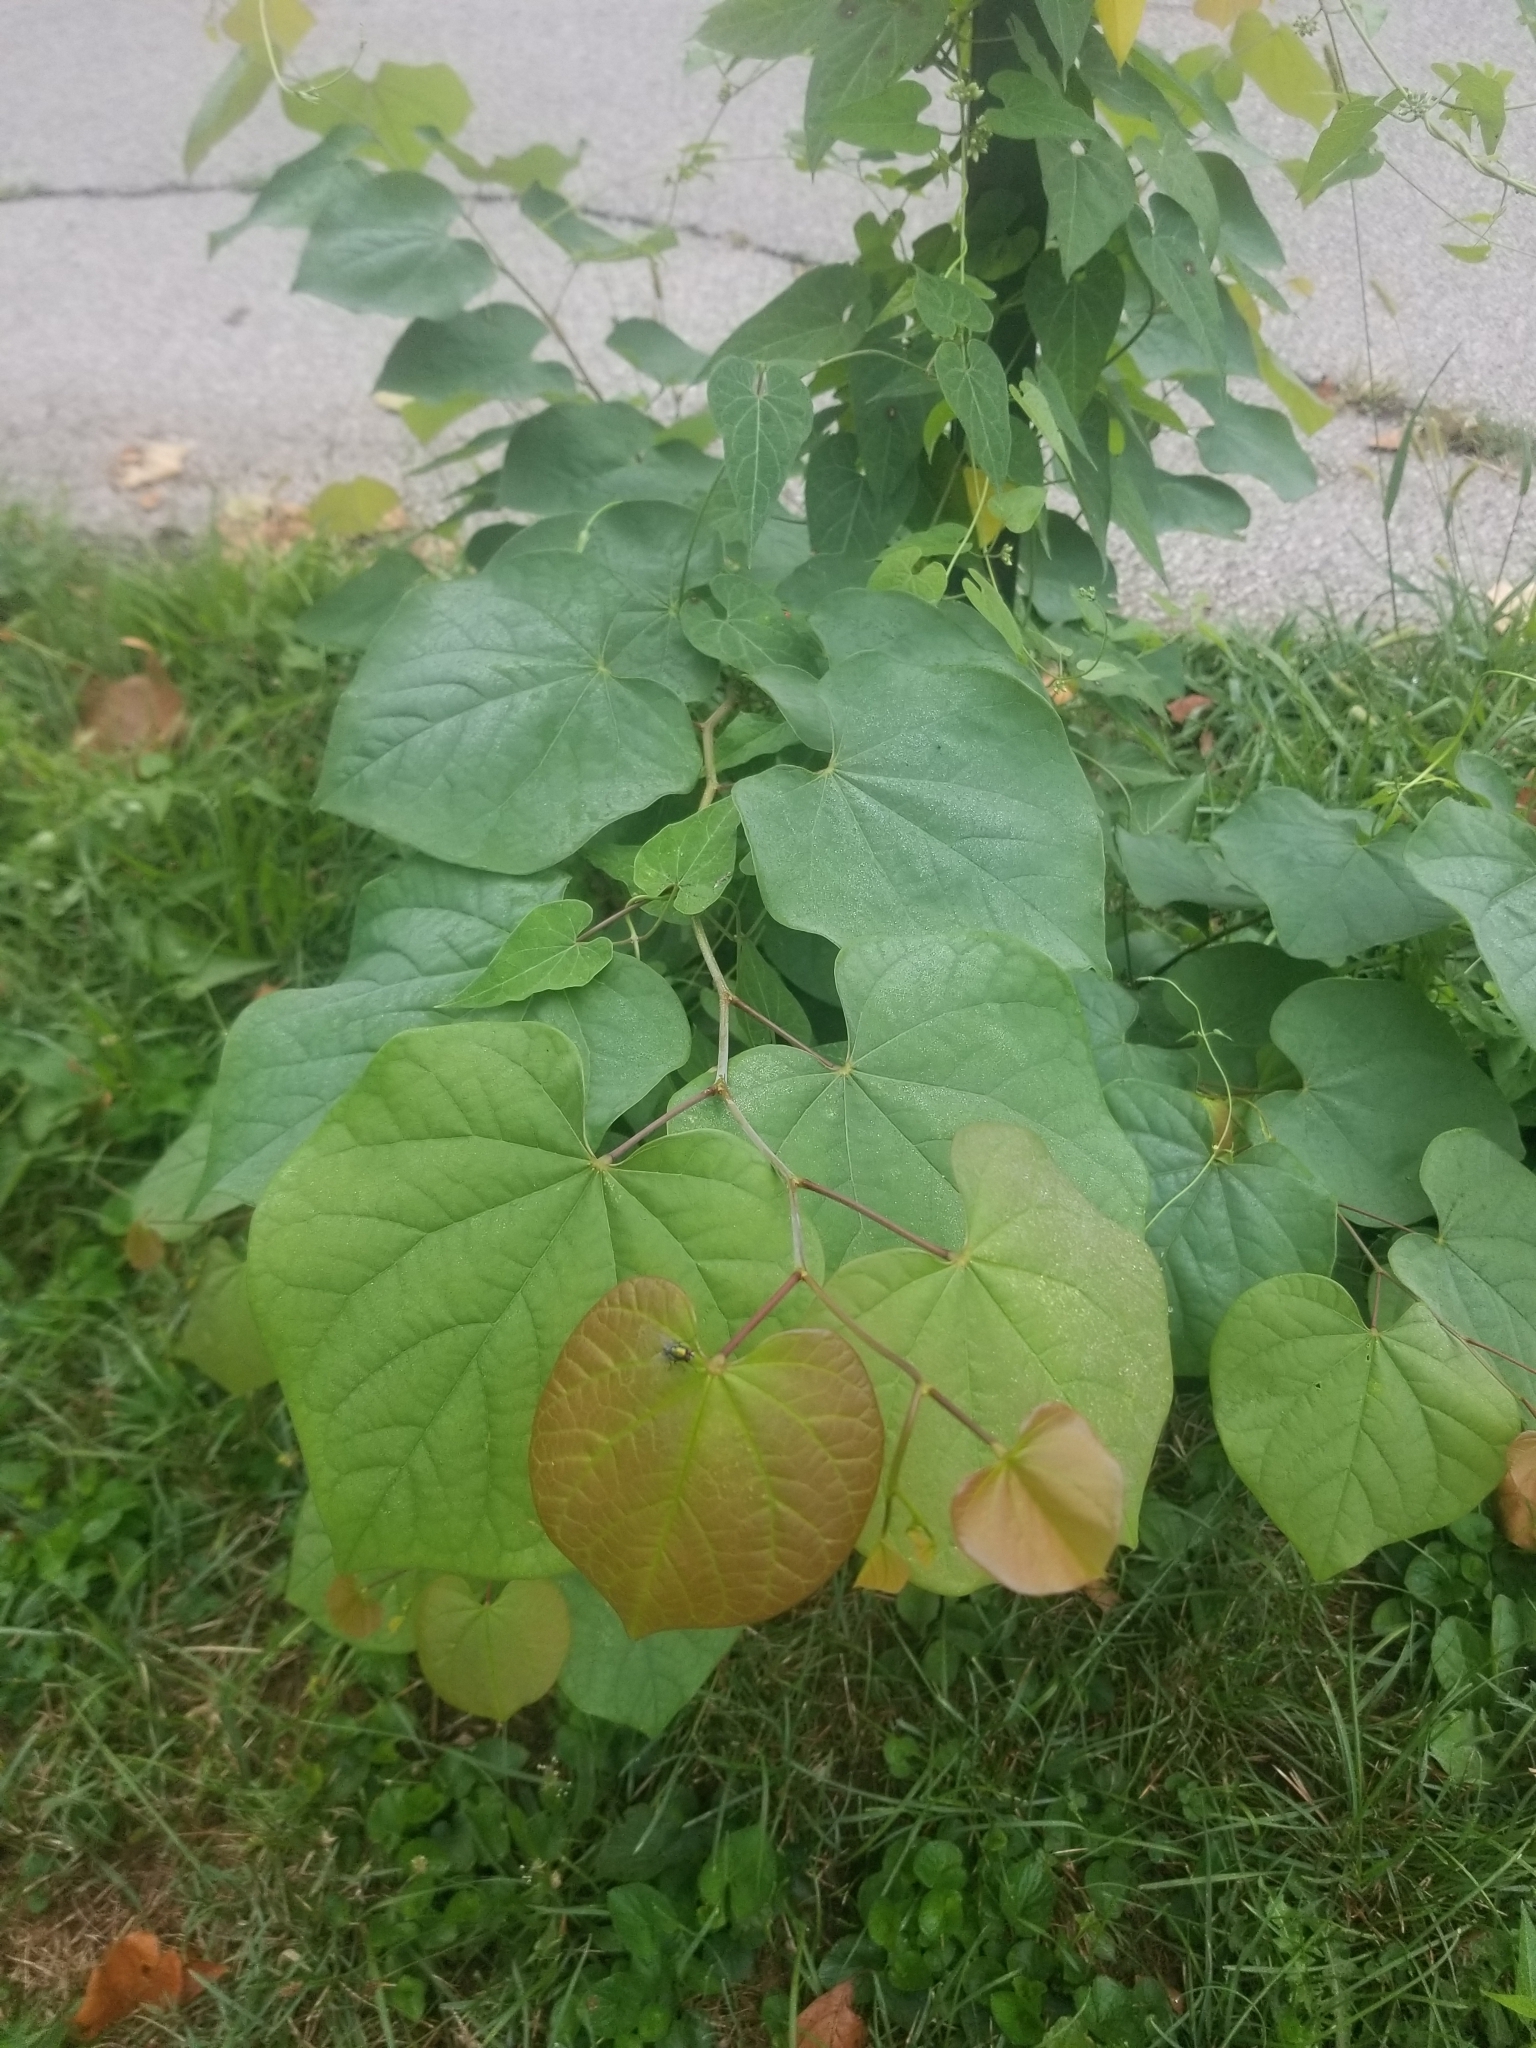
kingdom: Plantae
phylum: Tracheophyta
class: Magnoliopsida
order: Fabales
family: Fabaceae
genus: Cercis
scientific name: Cercis canadensis
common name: Eastern redbud
